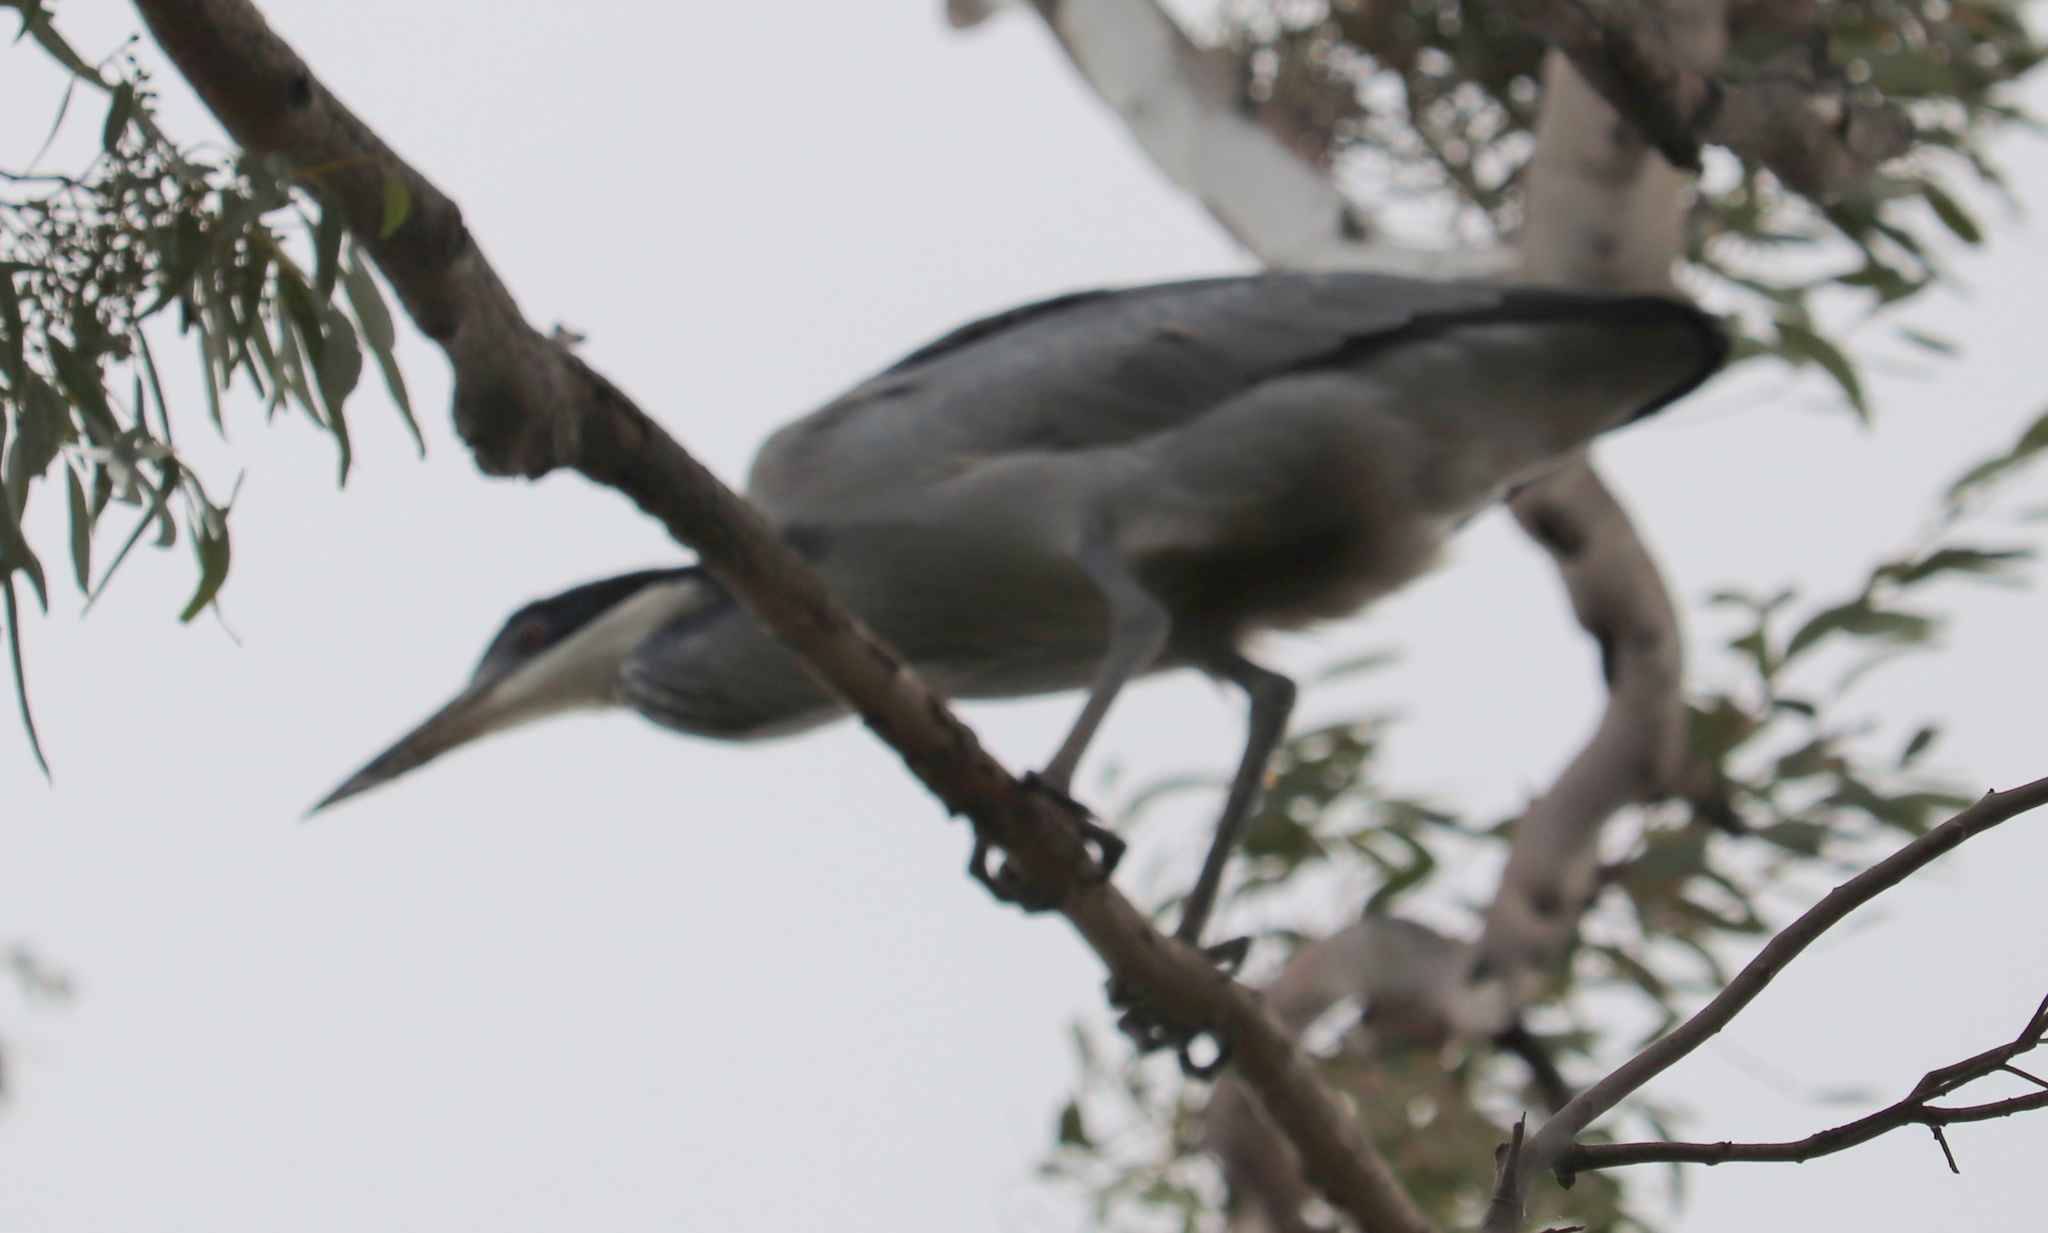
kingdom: Animalia
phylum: Chordata
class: Aves
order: Pelecaniformes
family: Ardeidae
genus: Ardea
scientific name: Ardea melanocephala
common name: Black-headed heron
